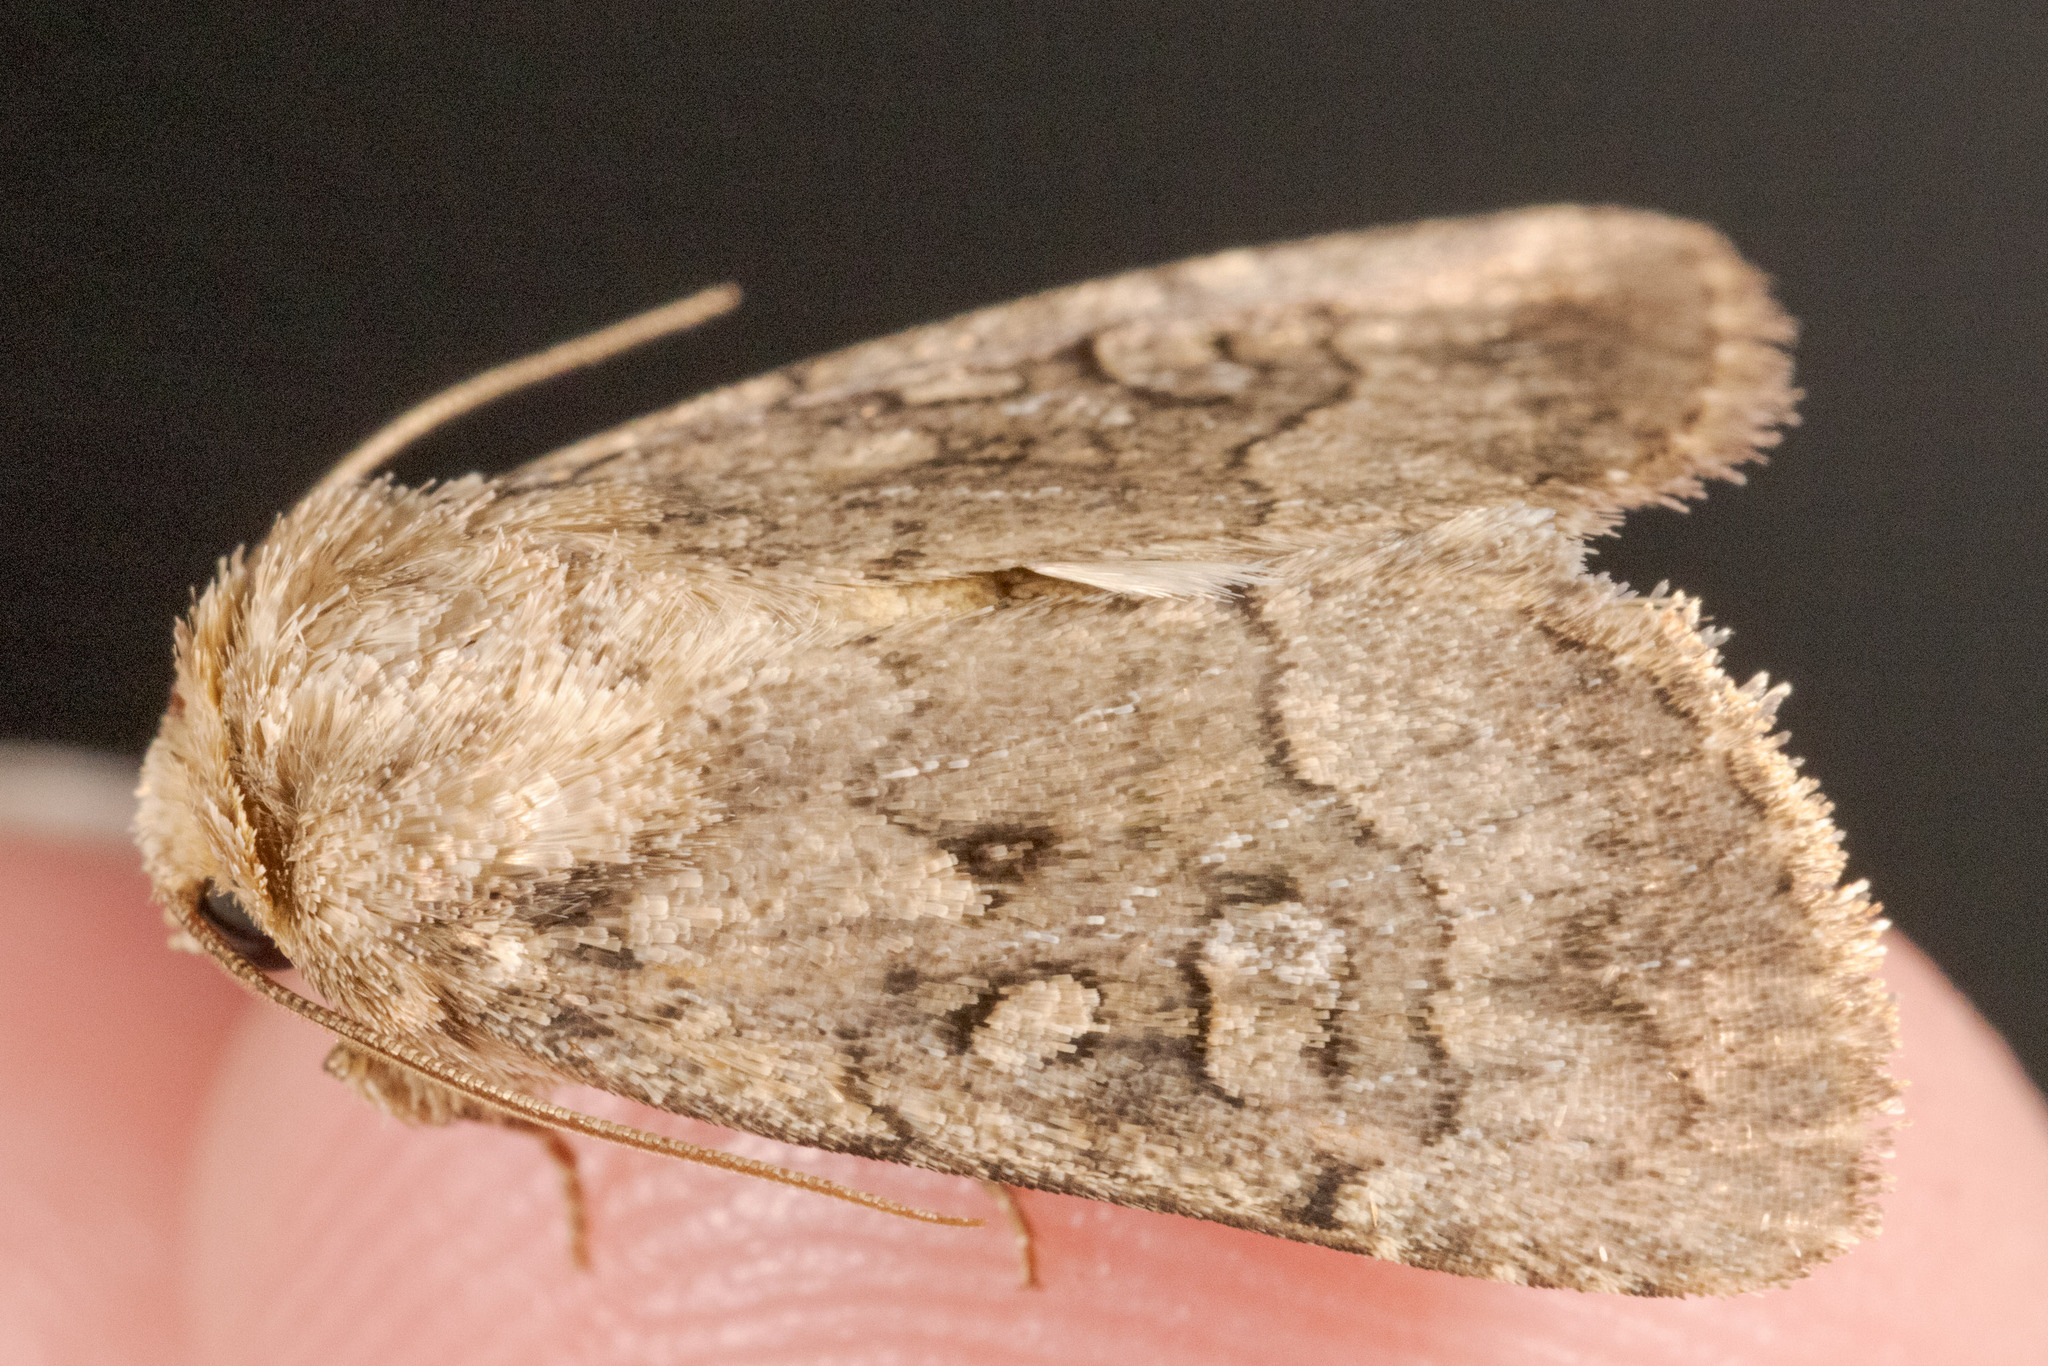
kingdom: Animalia
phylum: Arthropoda
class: Insecta
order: Lepidoptera
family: Noctuidae
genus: Protorthodes
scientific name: Protorthodes texana
